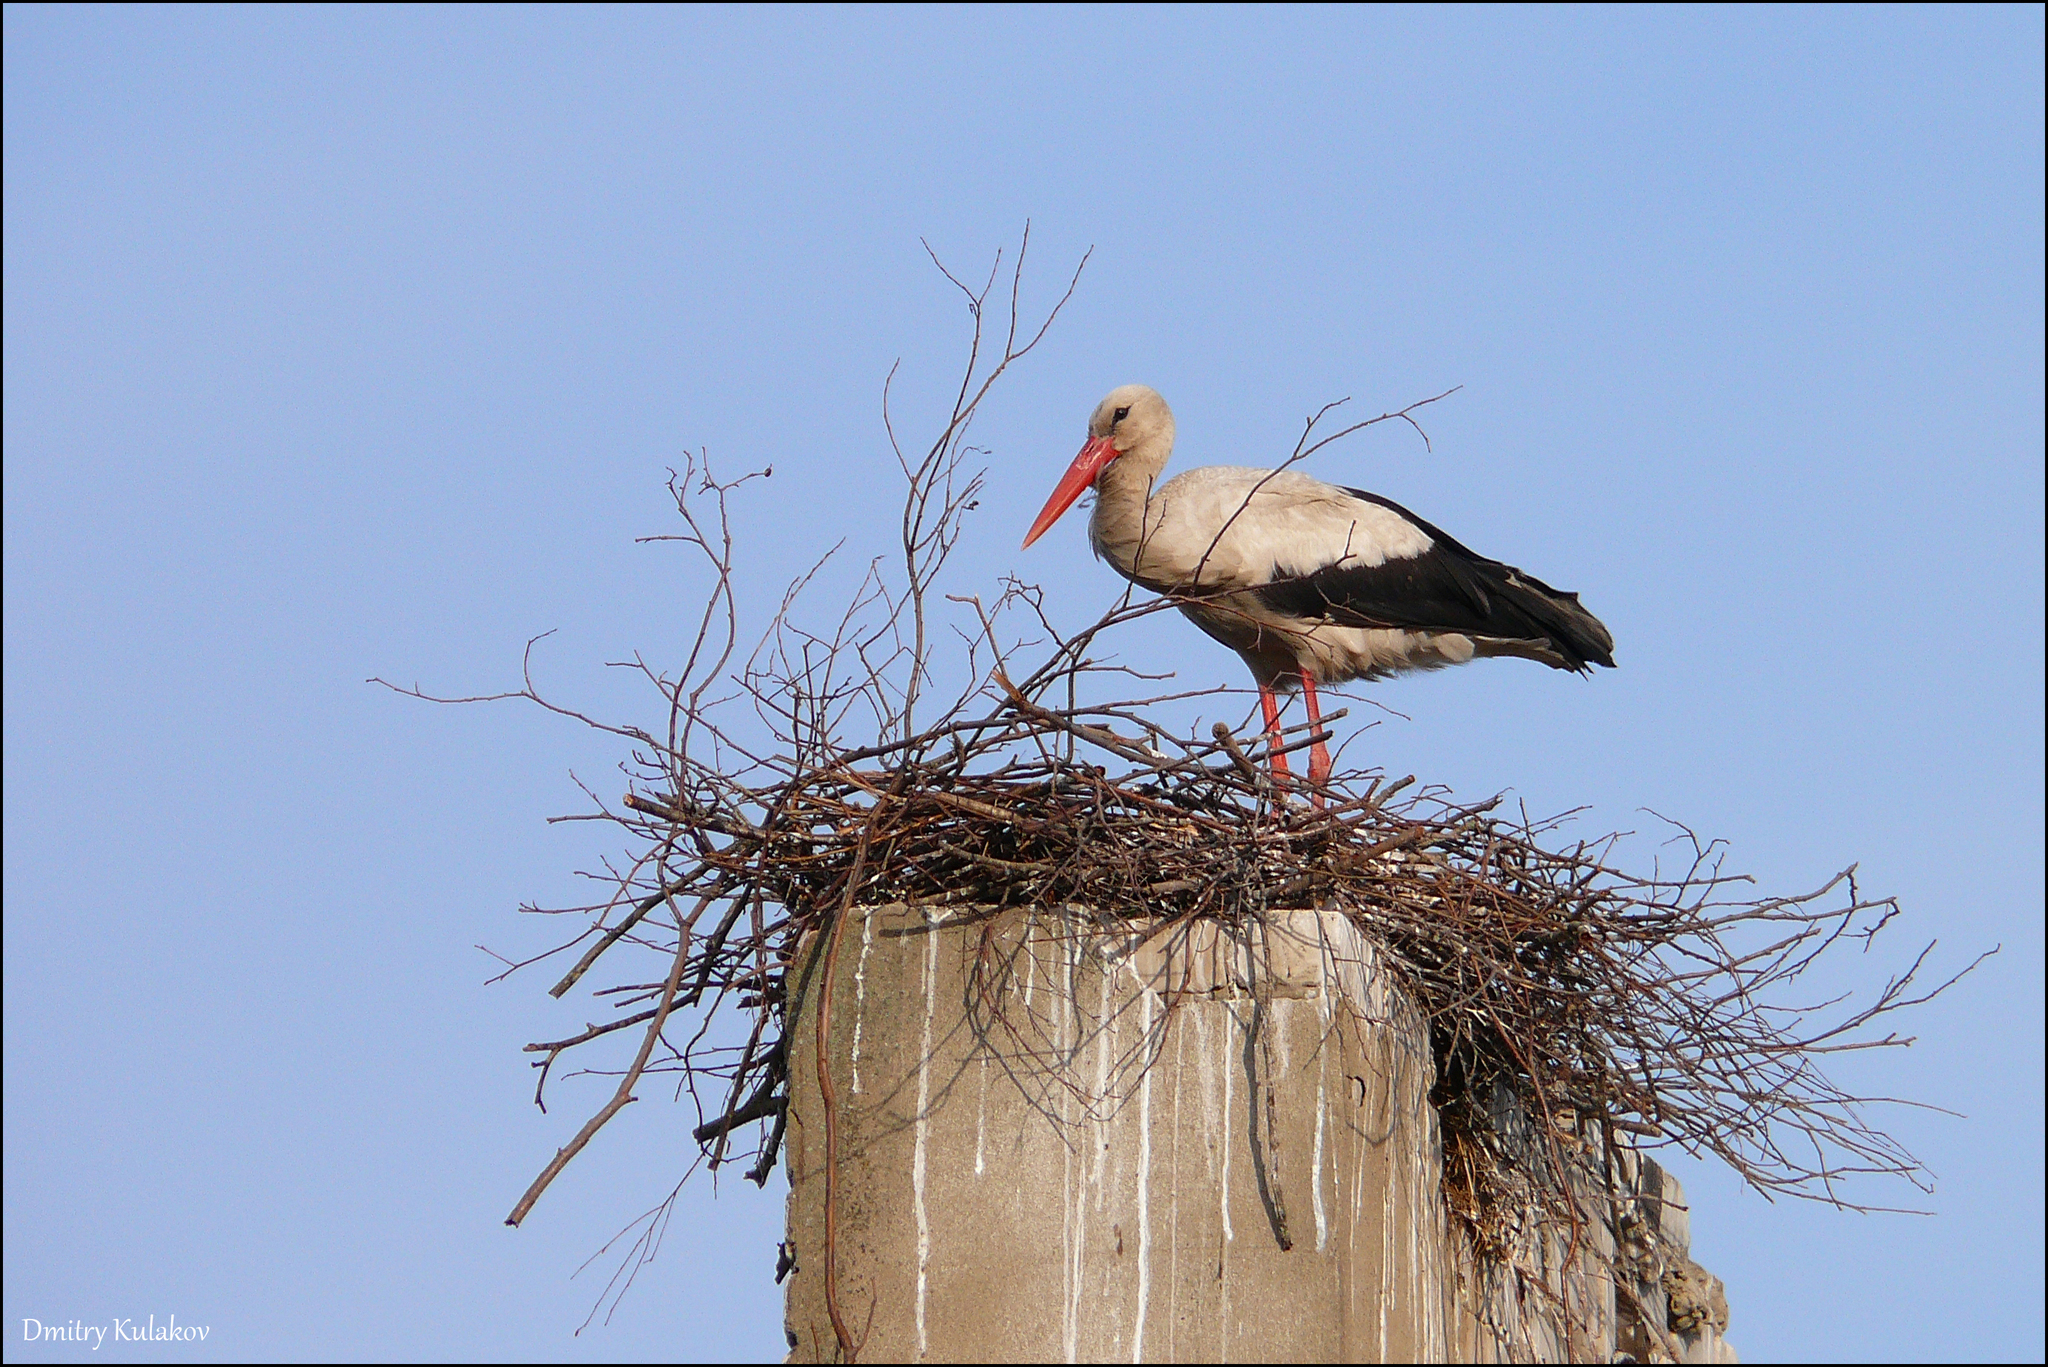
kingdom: Animalia
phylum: Chordata
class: Aves
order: Ciconiiformes
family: Ciconiidae
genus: Ciconia
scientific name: Ciconia ciconia
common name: White stork
